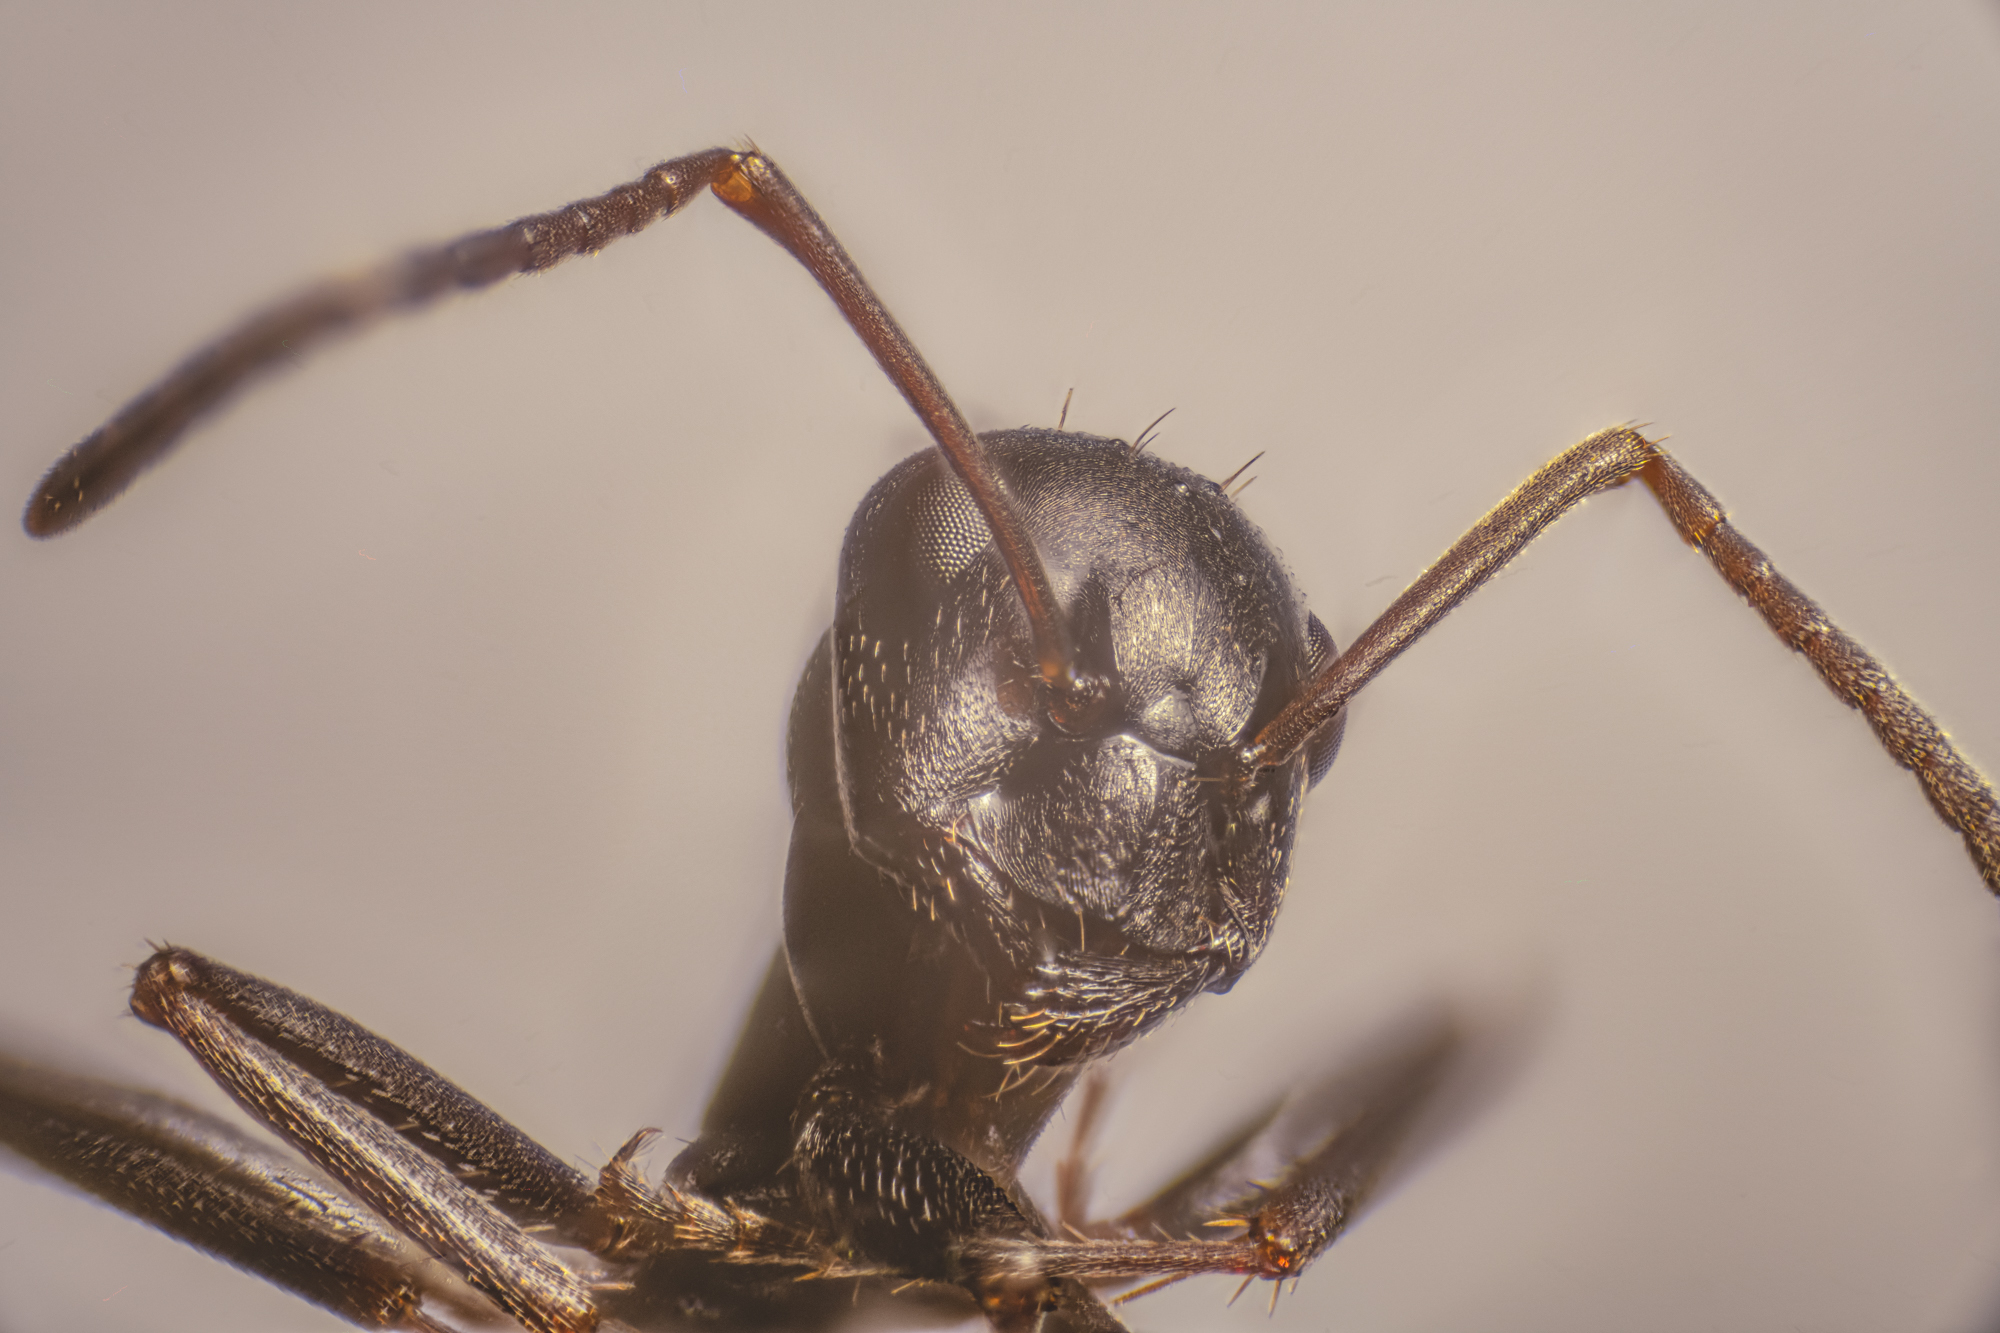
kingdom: Animalia
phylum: Arthropoda
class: Insecta
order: Hymenoptera
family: Formicidae
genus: Formica
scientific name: Formica picea
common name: Black bog ant
